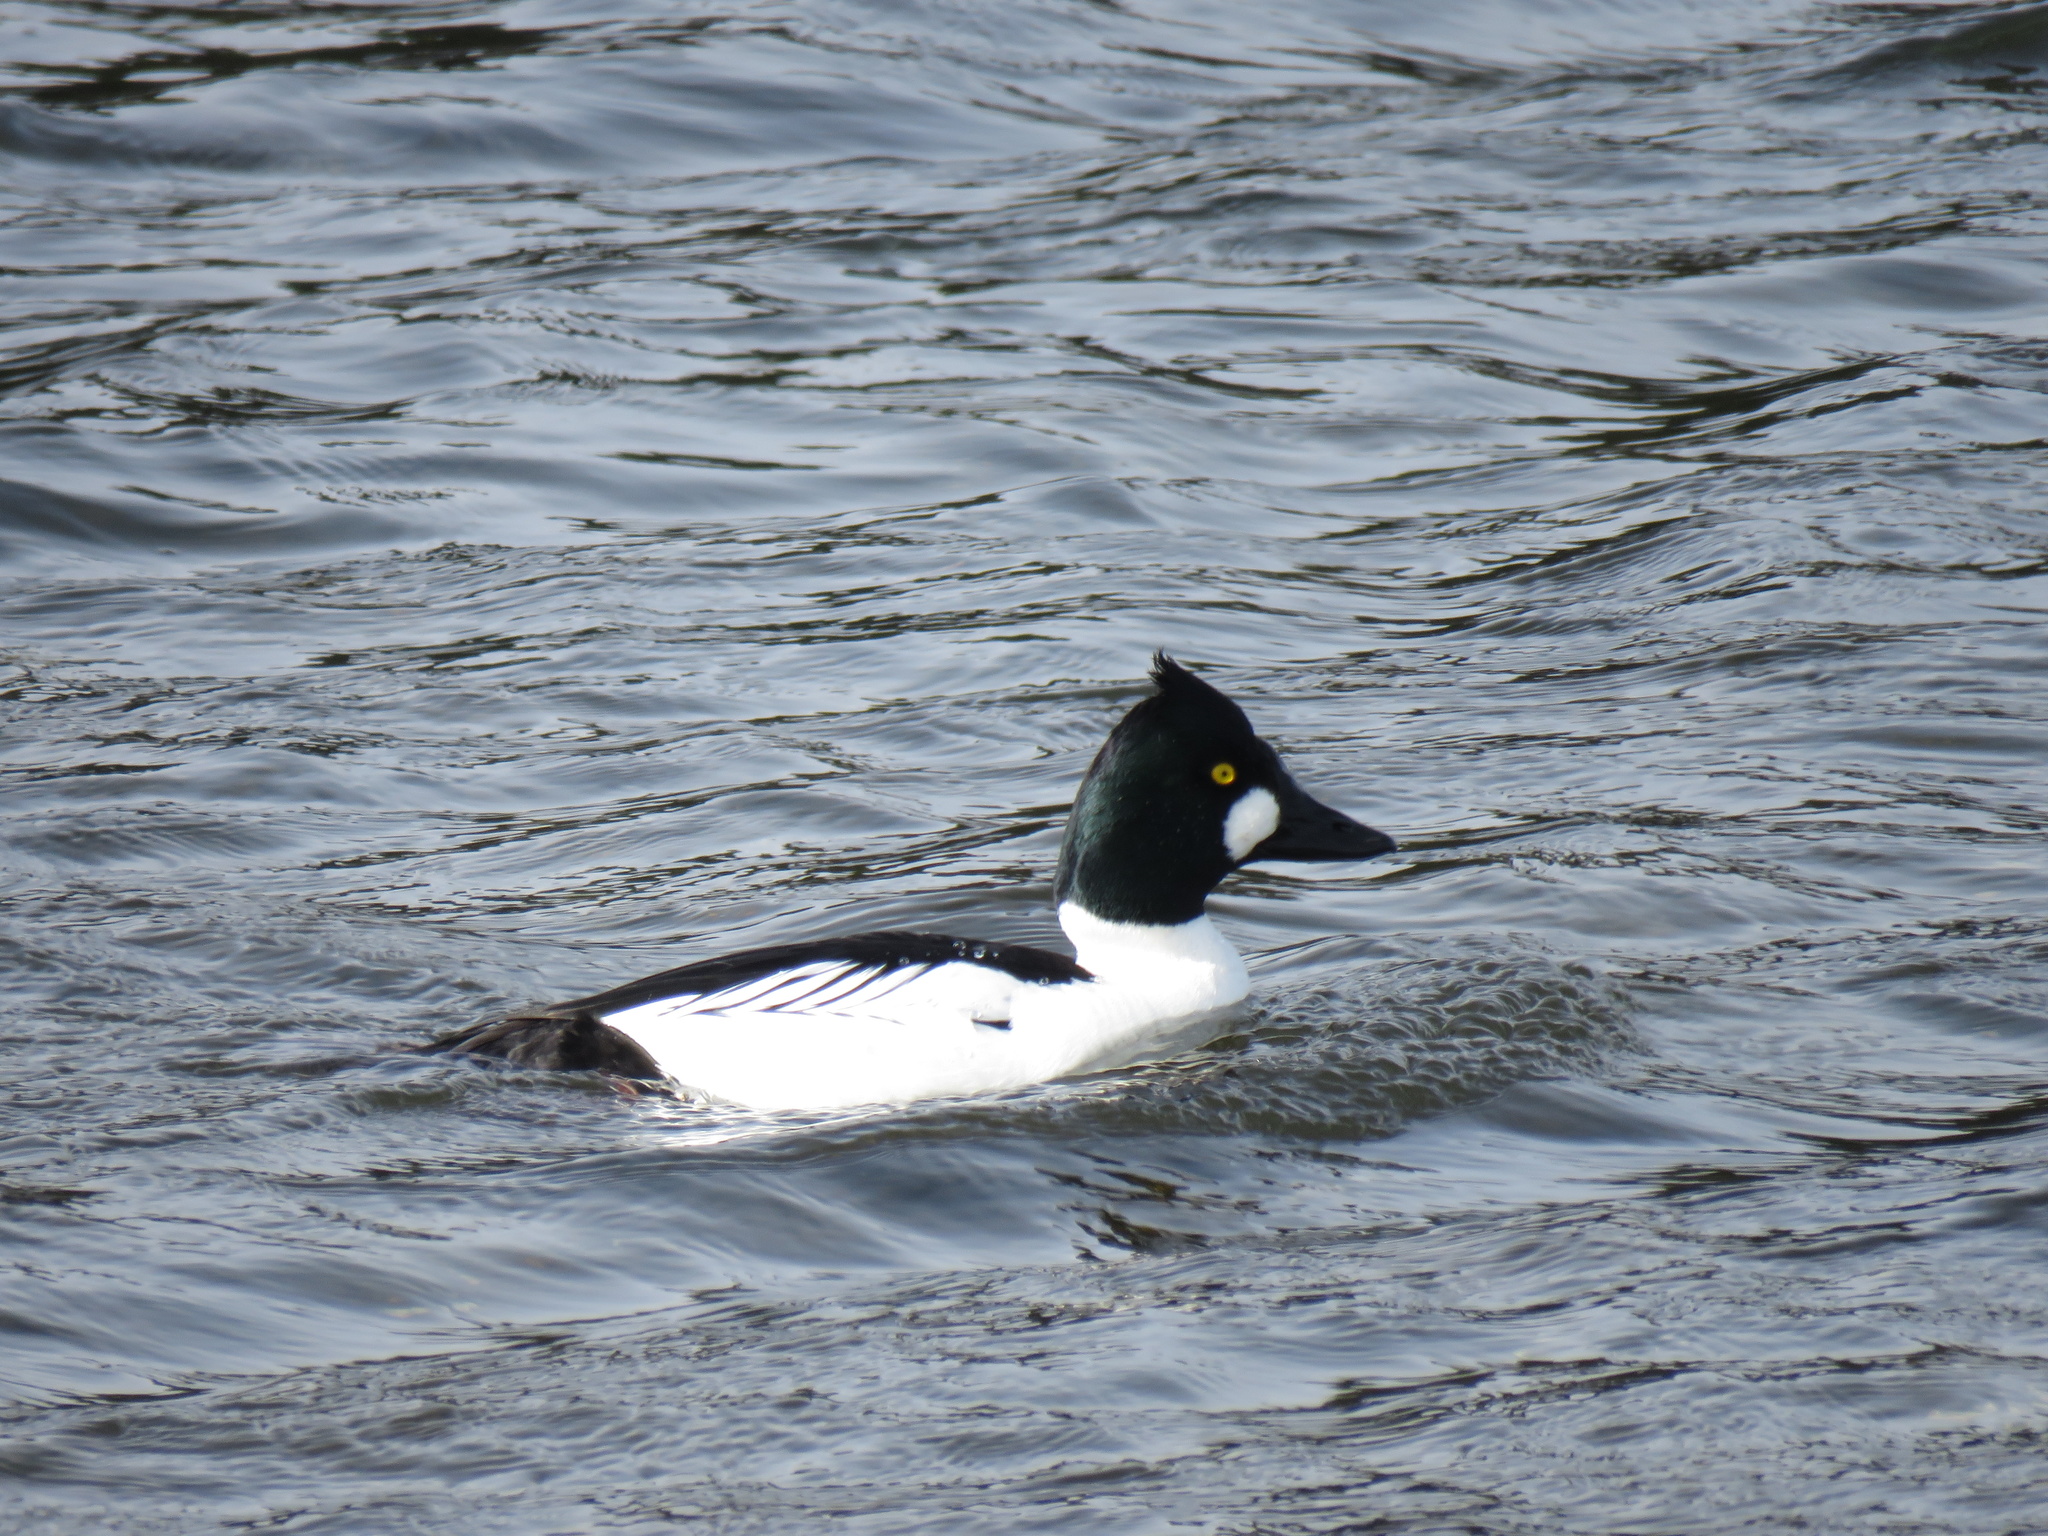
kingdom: Animalia
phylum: Chordata
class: Aves
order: Anseriformes
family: Anatidae
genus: Bucephala
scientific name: Bucephala clangula
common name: Common goldeneye
